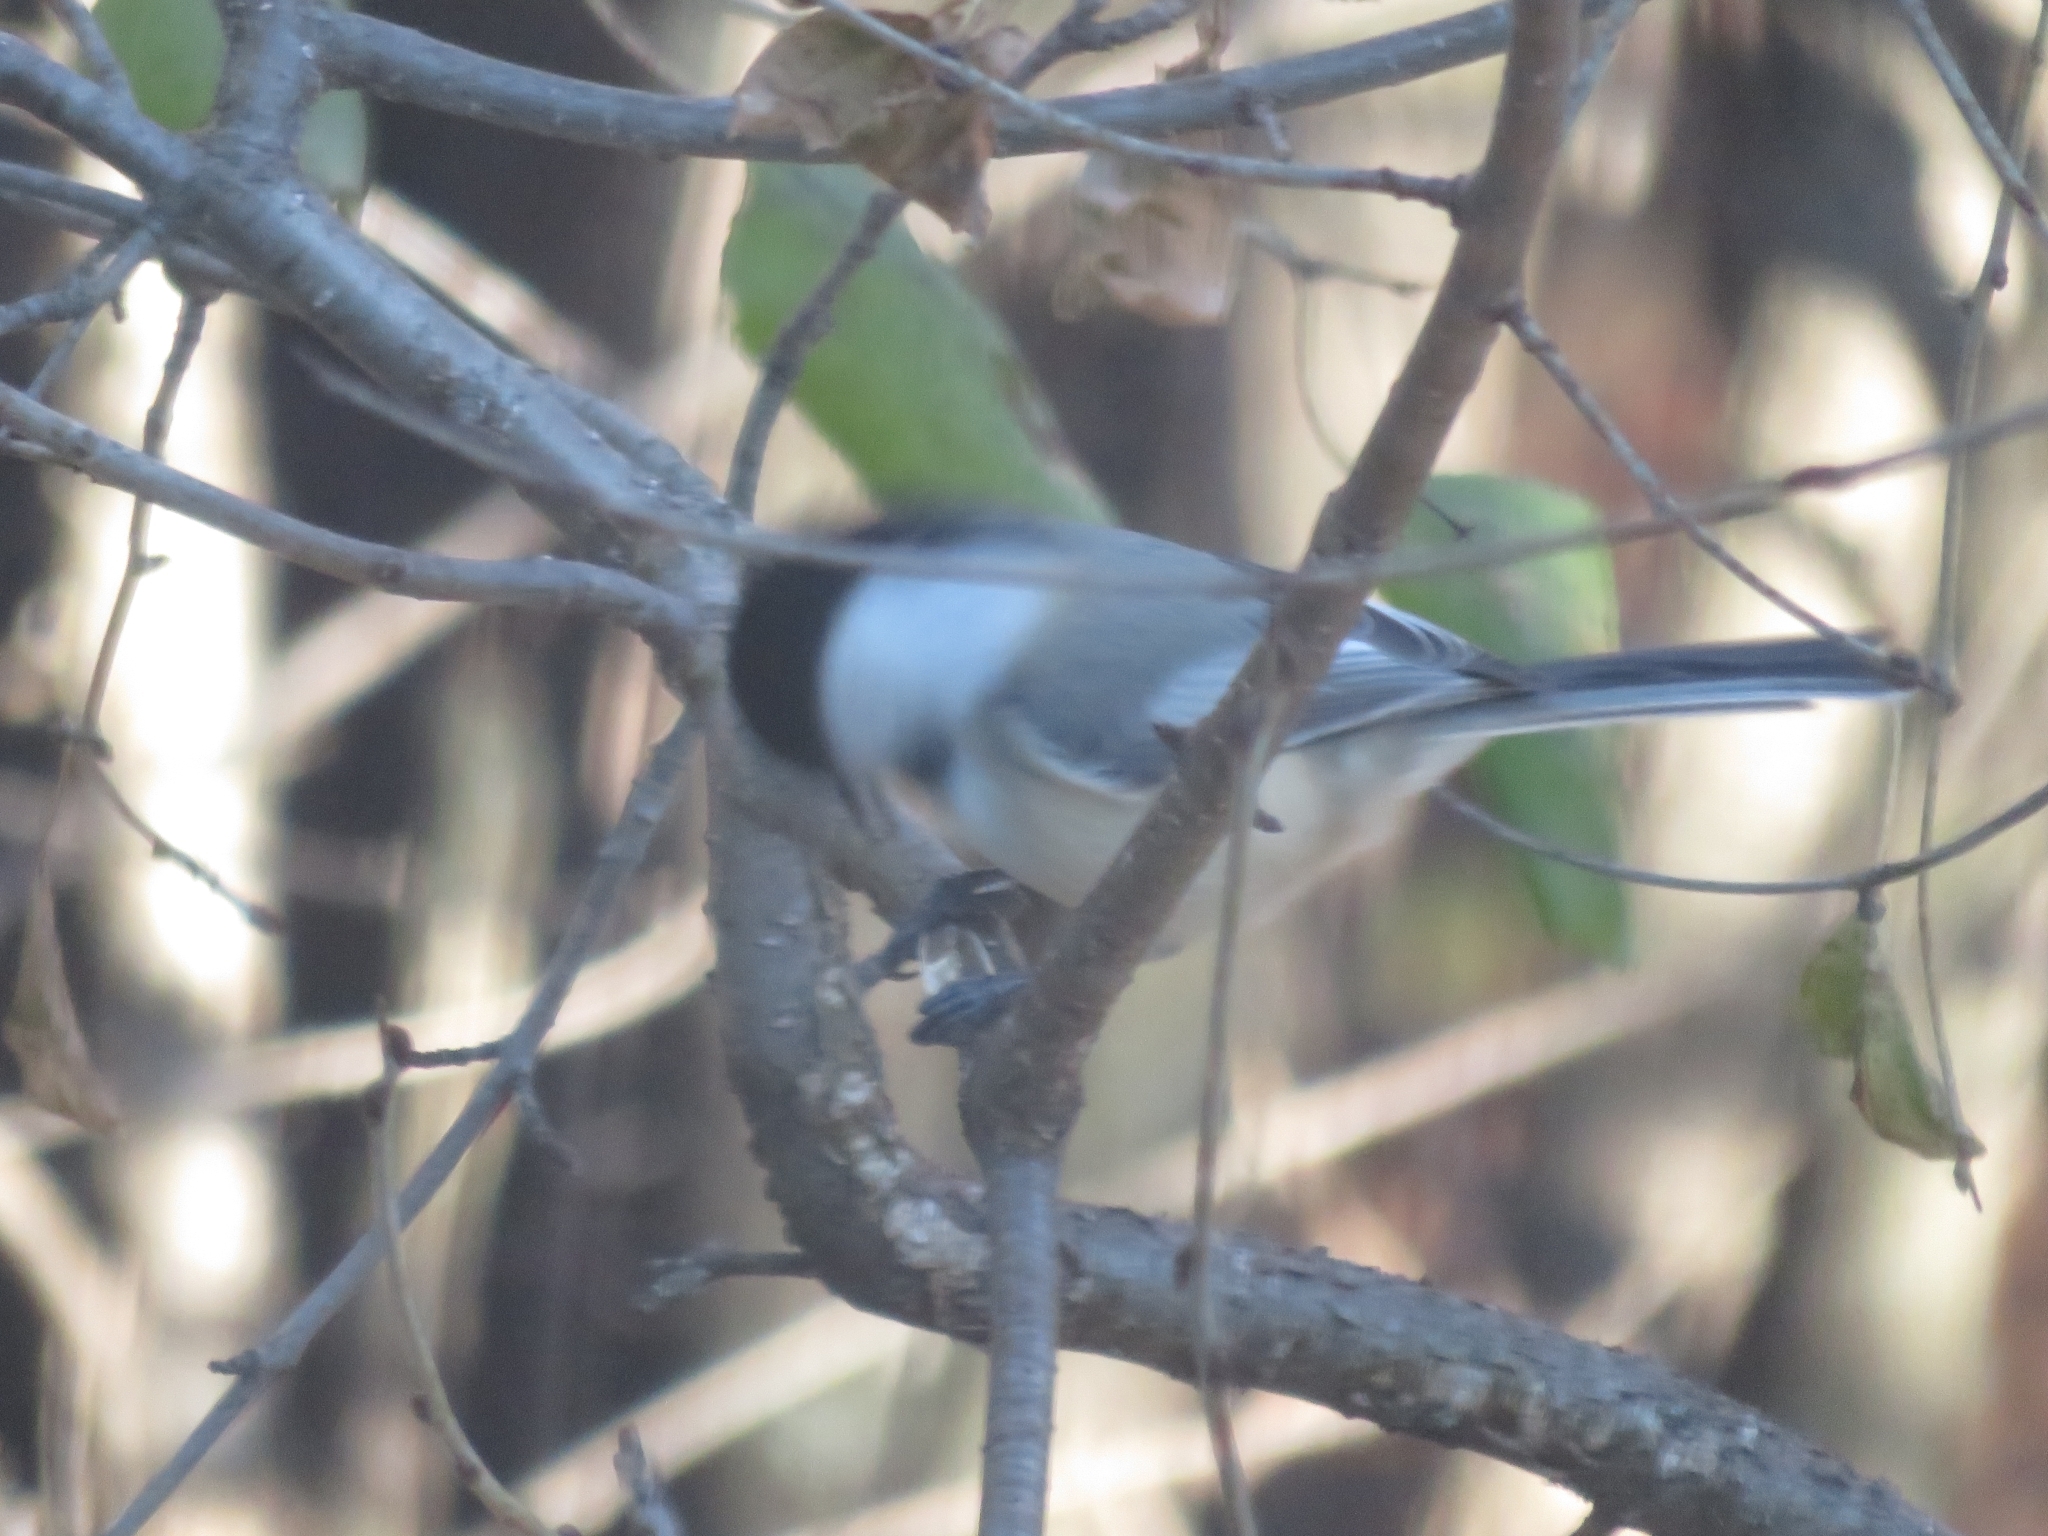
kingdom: Animalia
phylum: Chordata
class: Aves
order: Passeriformes
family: Paridae
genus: Poecile
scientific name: Poecile atricapillus
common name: Black-capped chickadee
